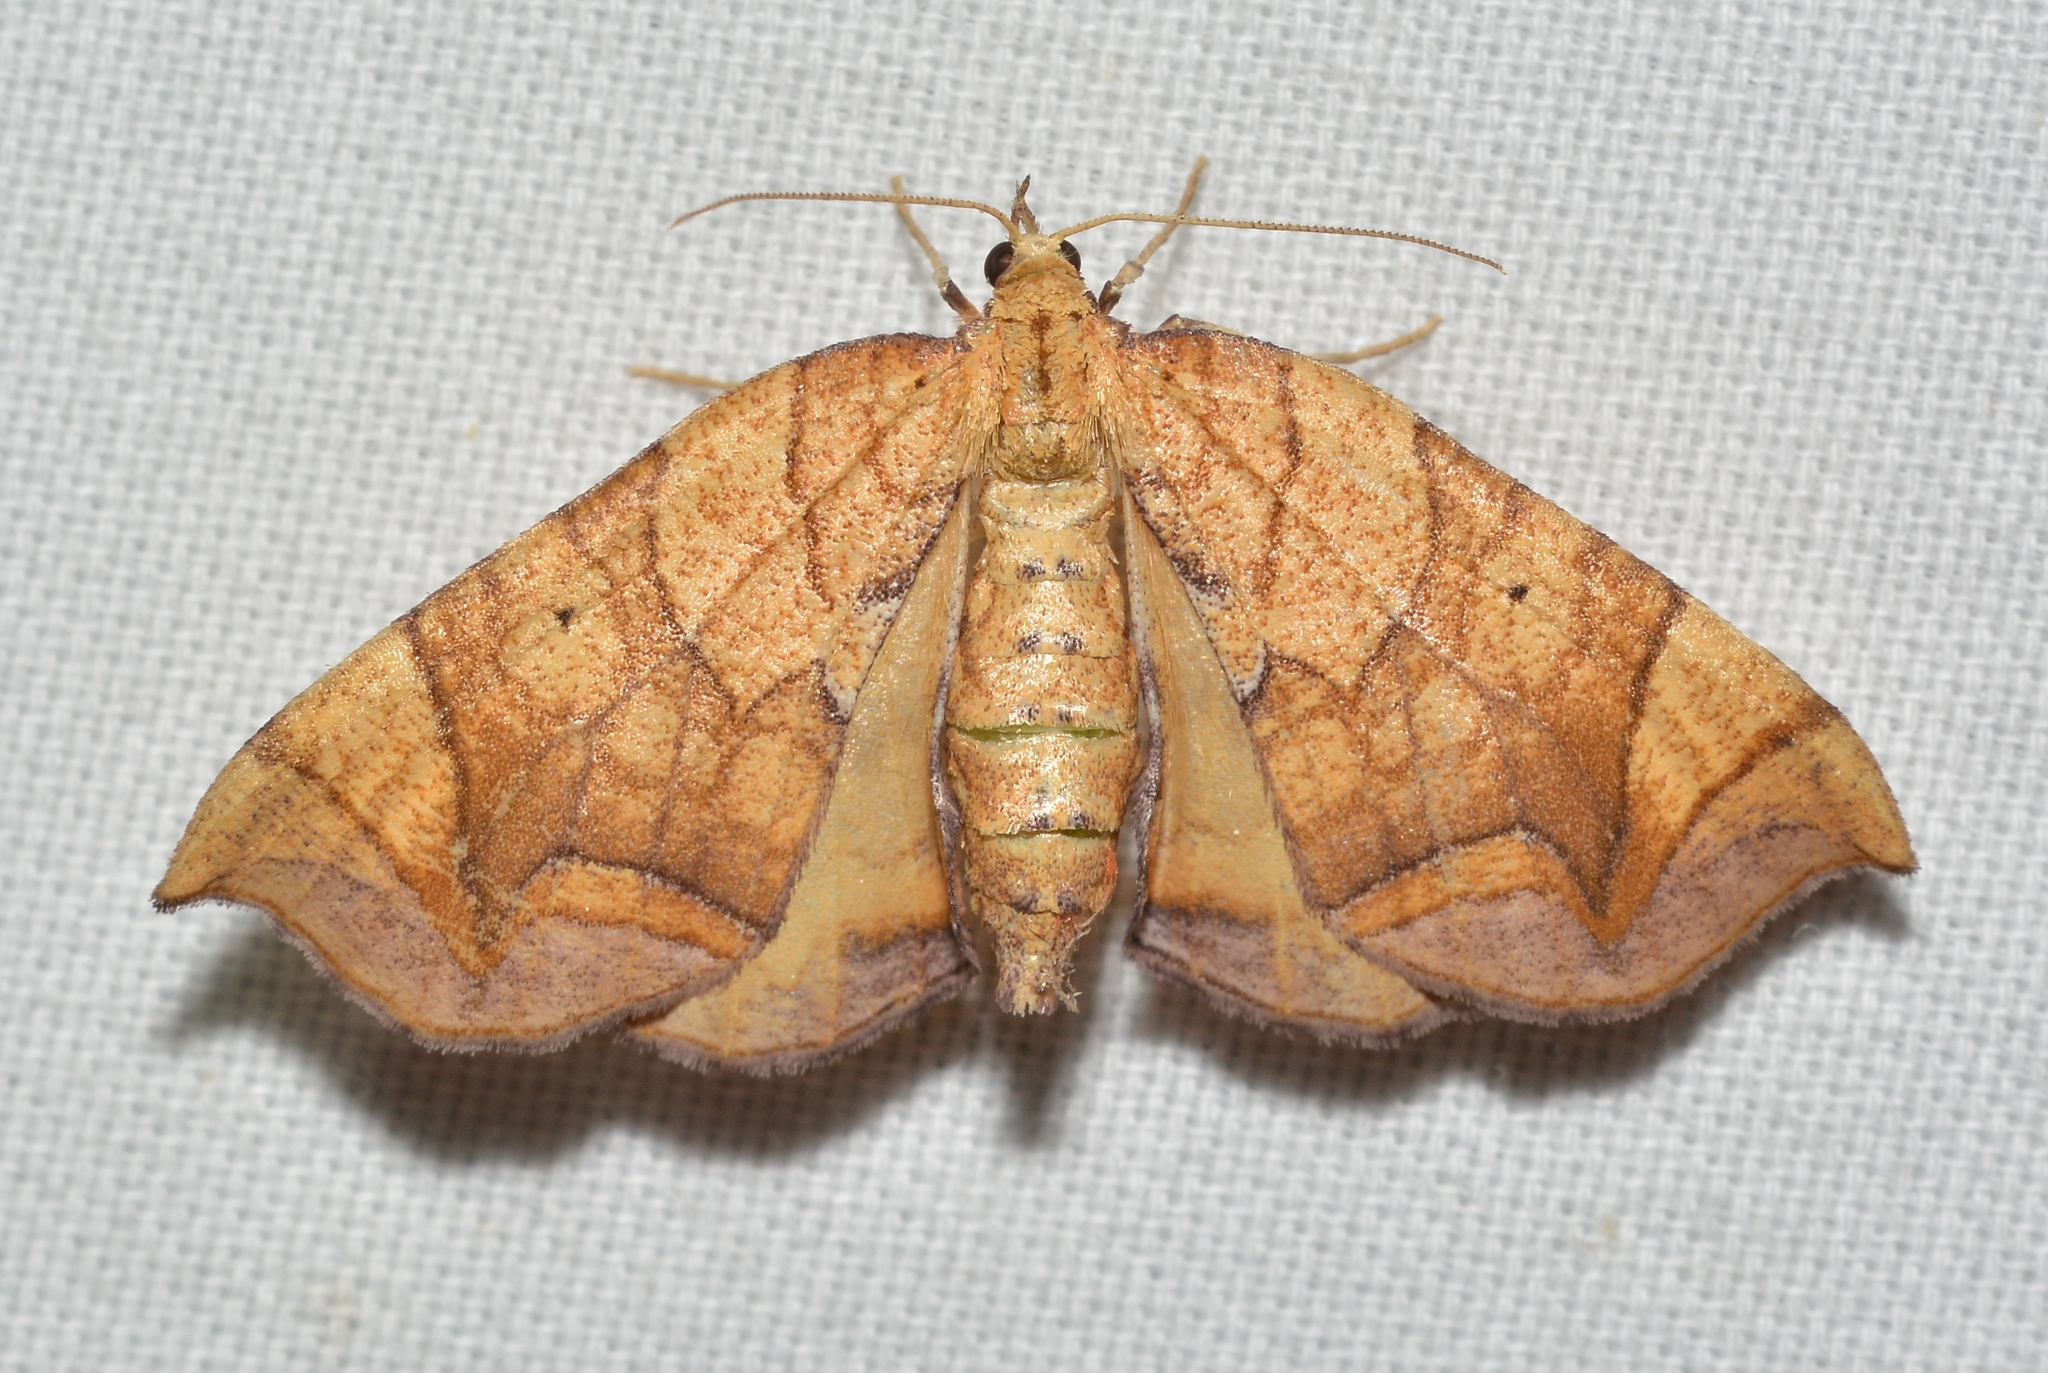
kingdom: Animalia
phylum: Arthropoda
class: Insecta
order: Lepidoptera
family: Geometridae
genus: Eulithis
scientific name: Eulithis
